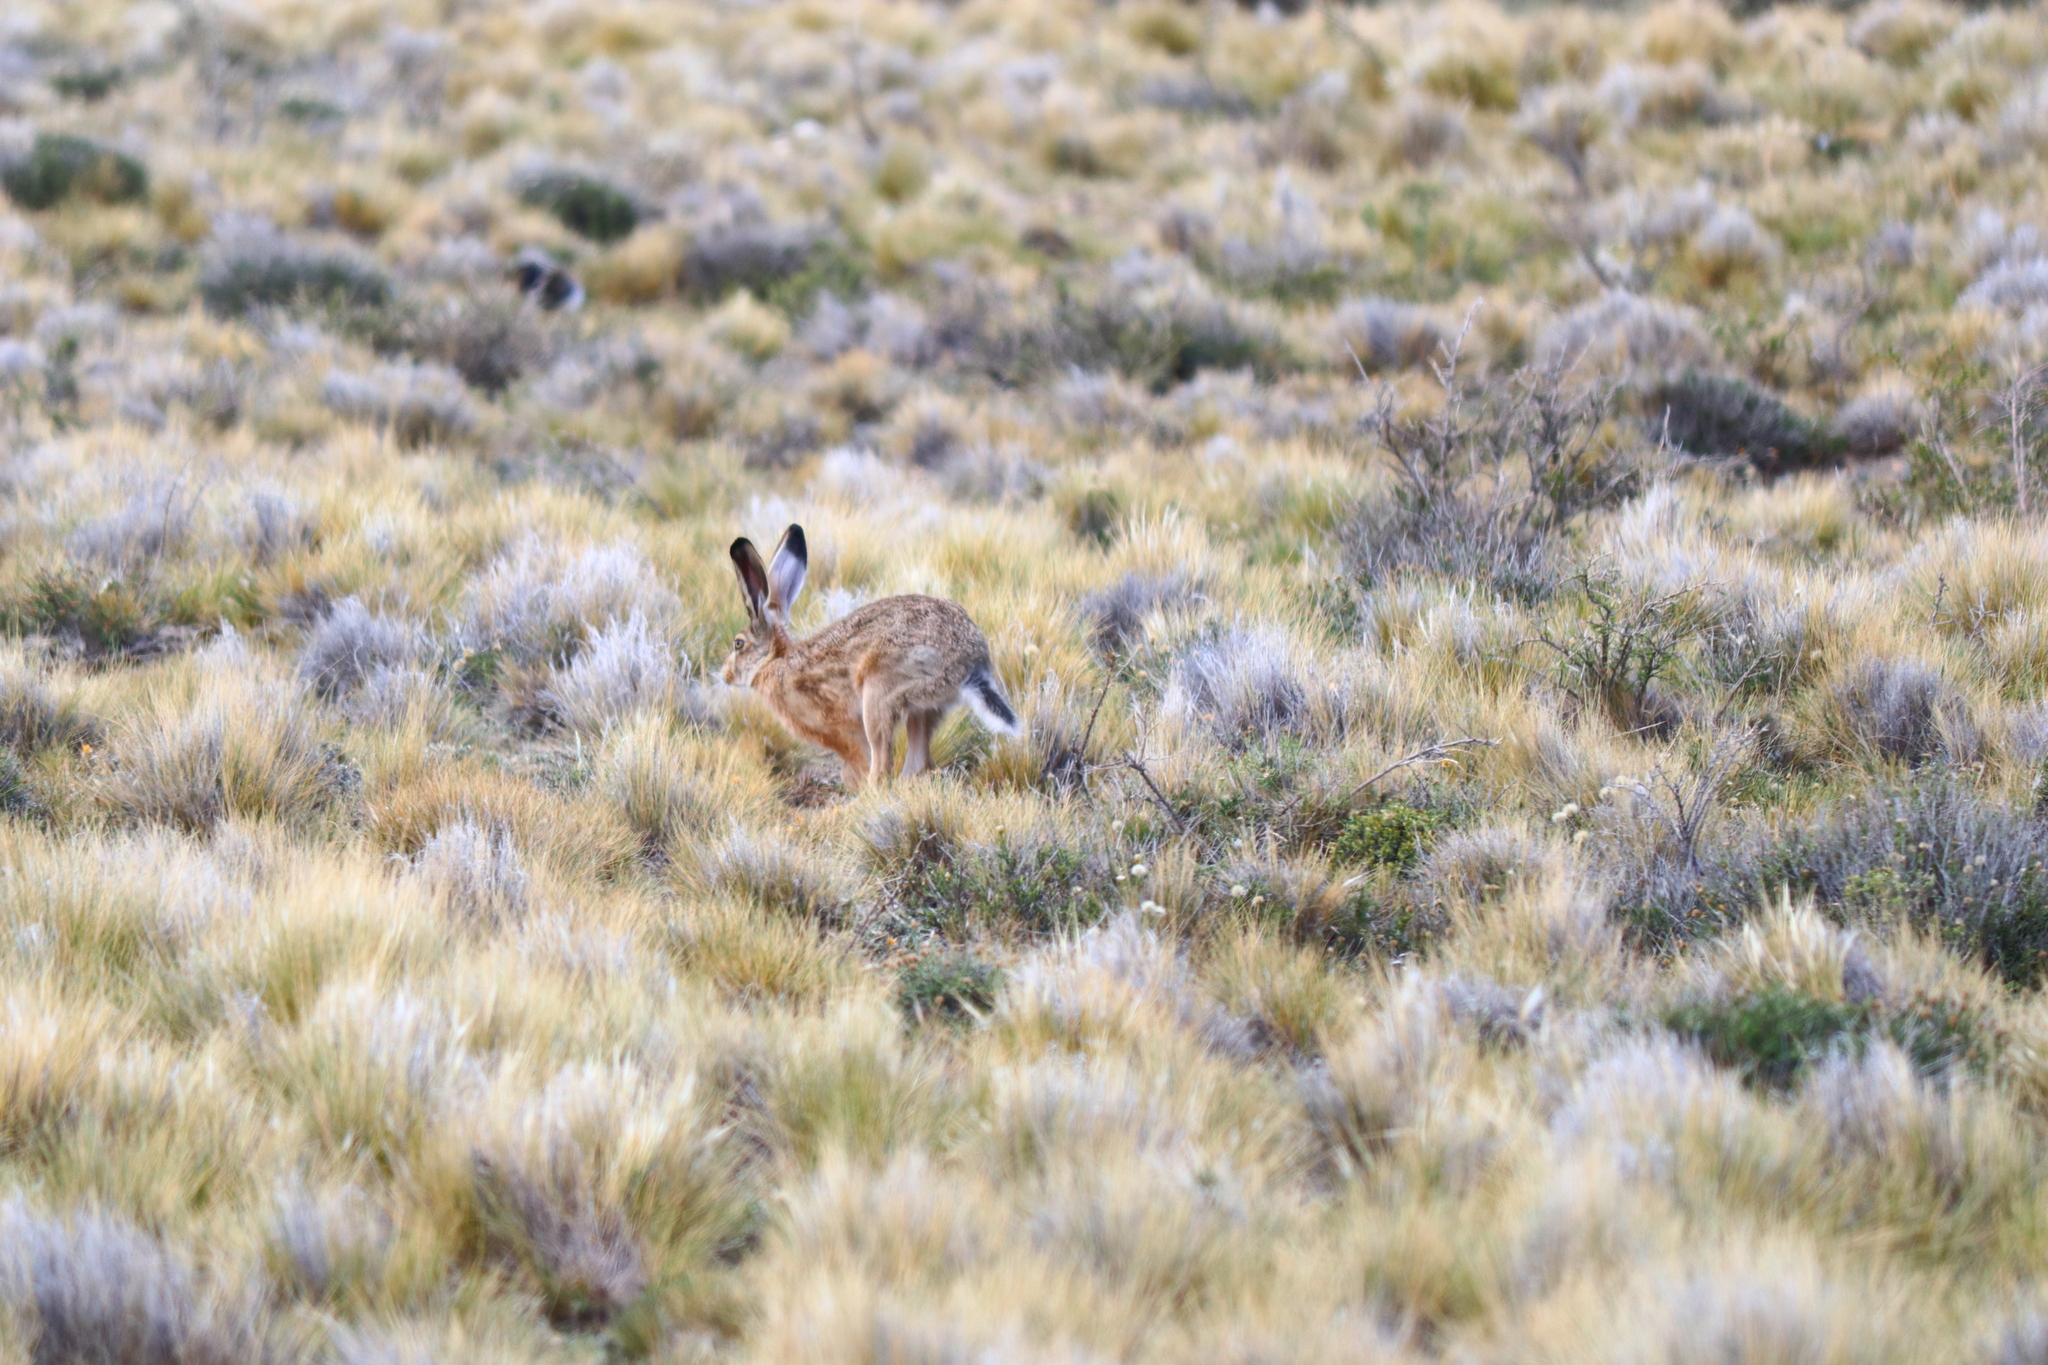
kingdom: Animalia
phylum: Chordata
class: Mammalia
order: Lagomorpha
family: Leporidae
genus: Lepus
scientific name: Lepus europaeus
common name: European hare
